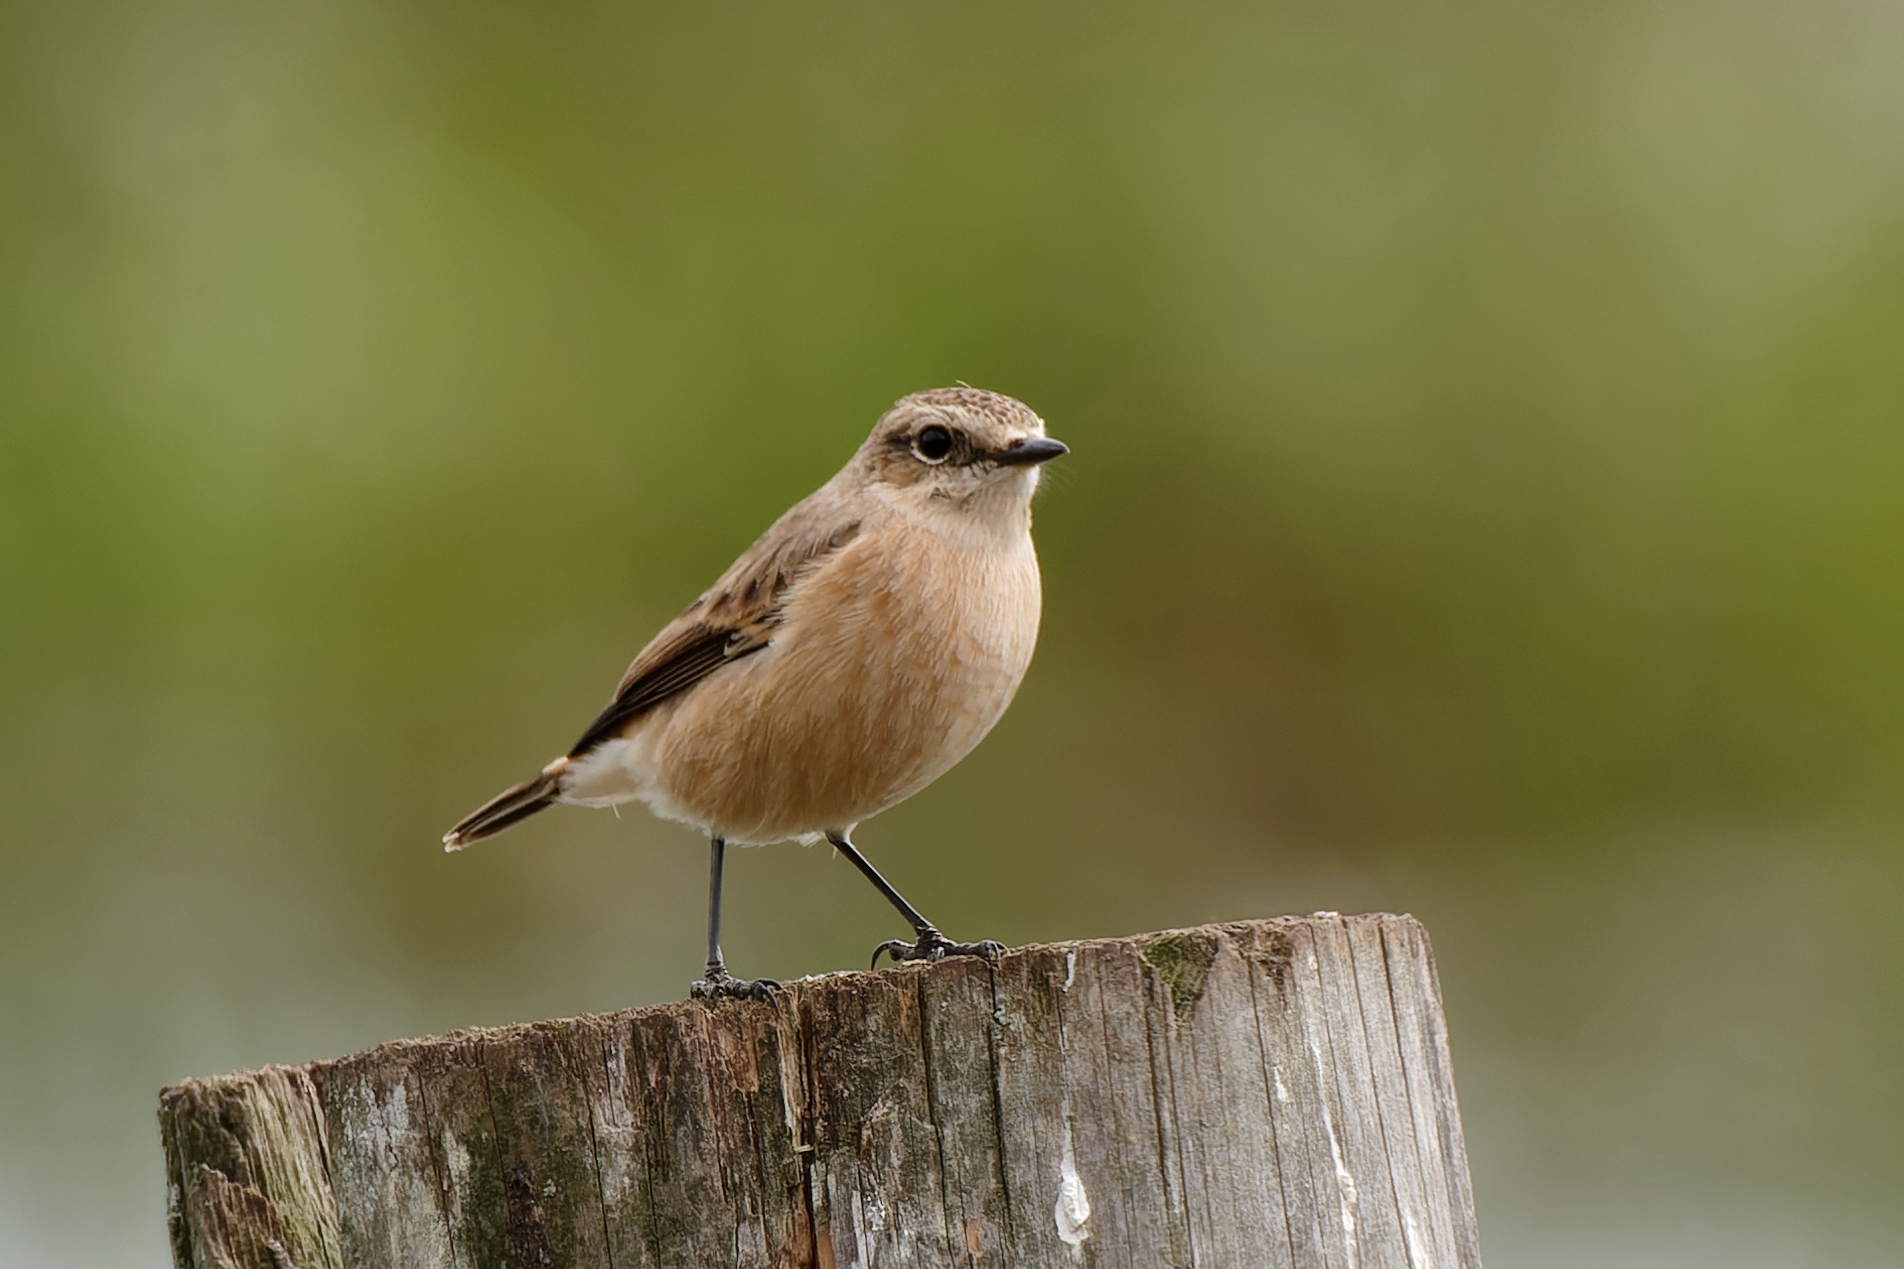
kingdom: Animalia
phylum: Chordata
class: Aves
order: Passeriformes
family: Muscicapidae
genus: Saxicola
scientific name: Saxicola maurus
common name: Siberian stonechat
